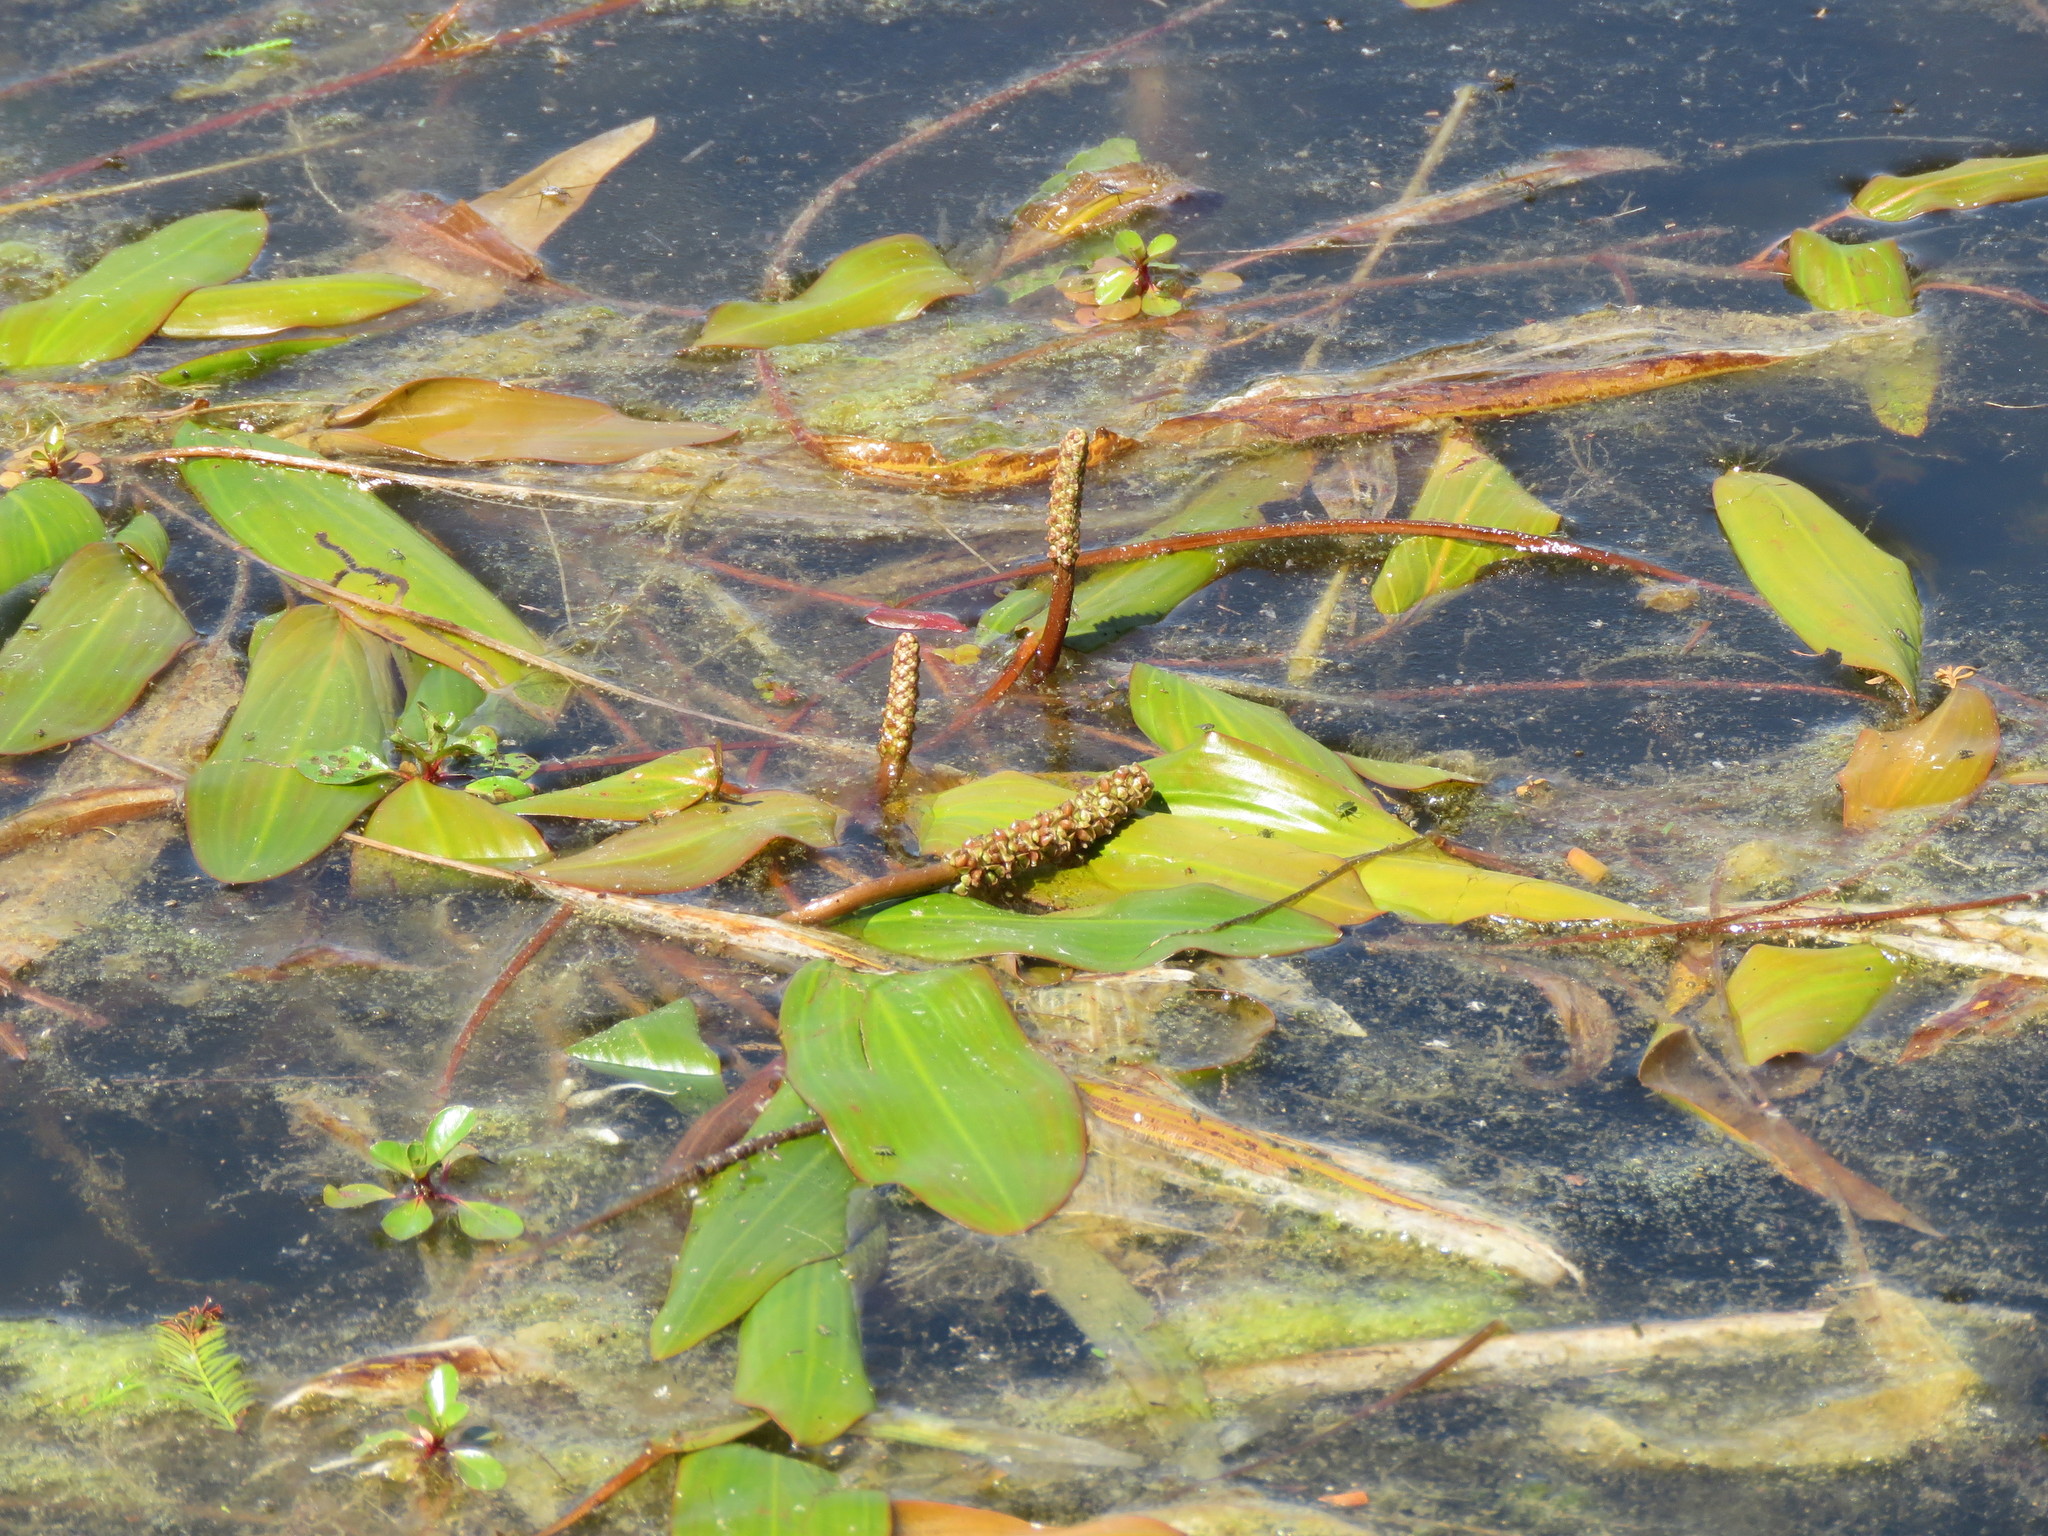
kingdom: Plantae
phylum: Tracheophyta
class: Liliopsida
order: Alismatales
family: Potamogetonaceae
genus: Potamogeton
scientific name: Potamogeton nodosus
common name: Loddon pondweed
